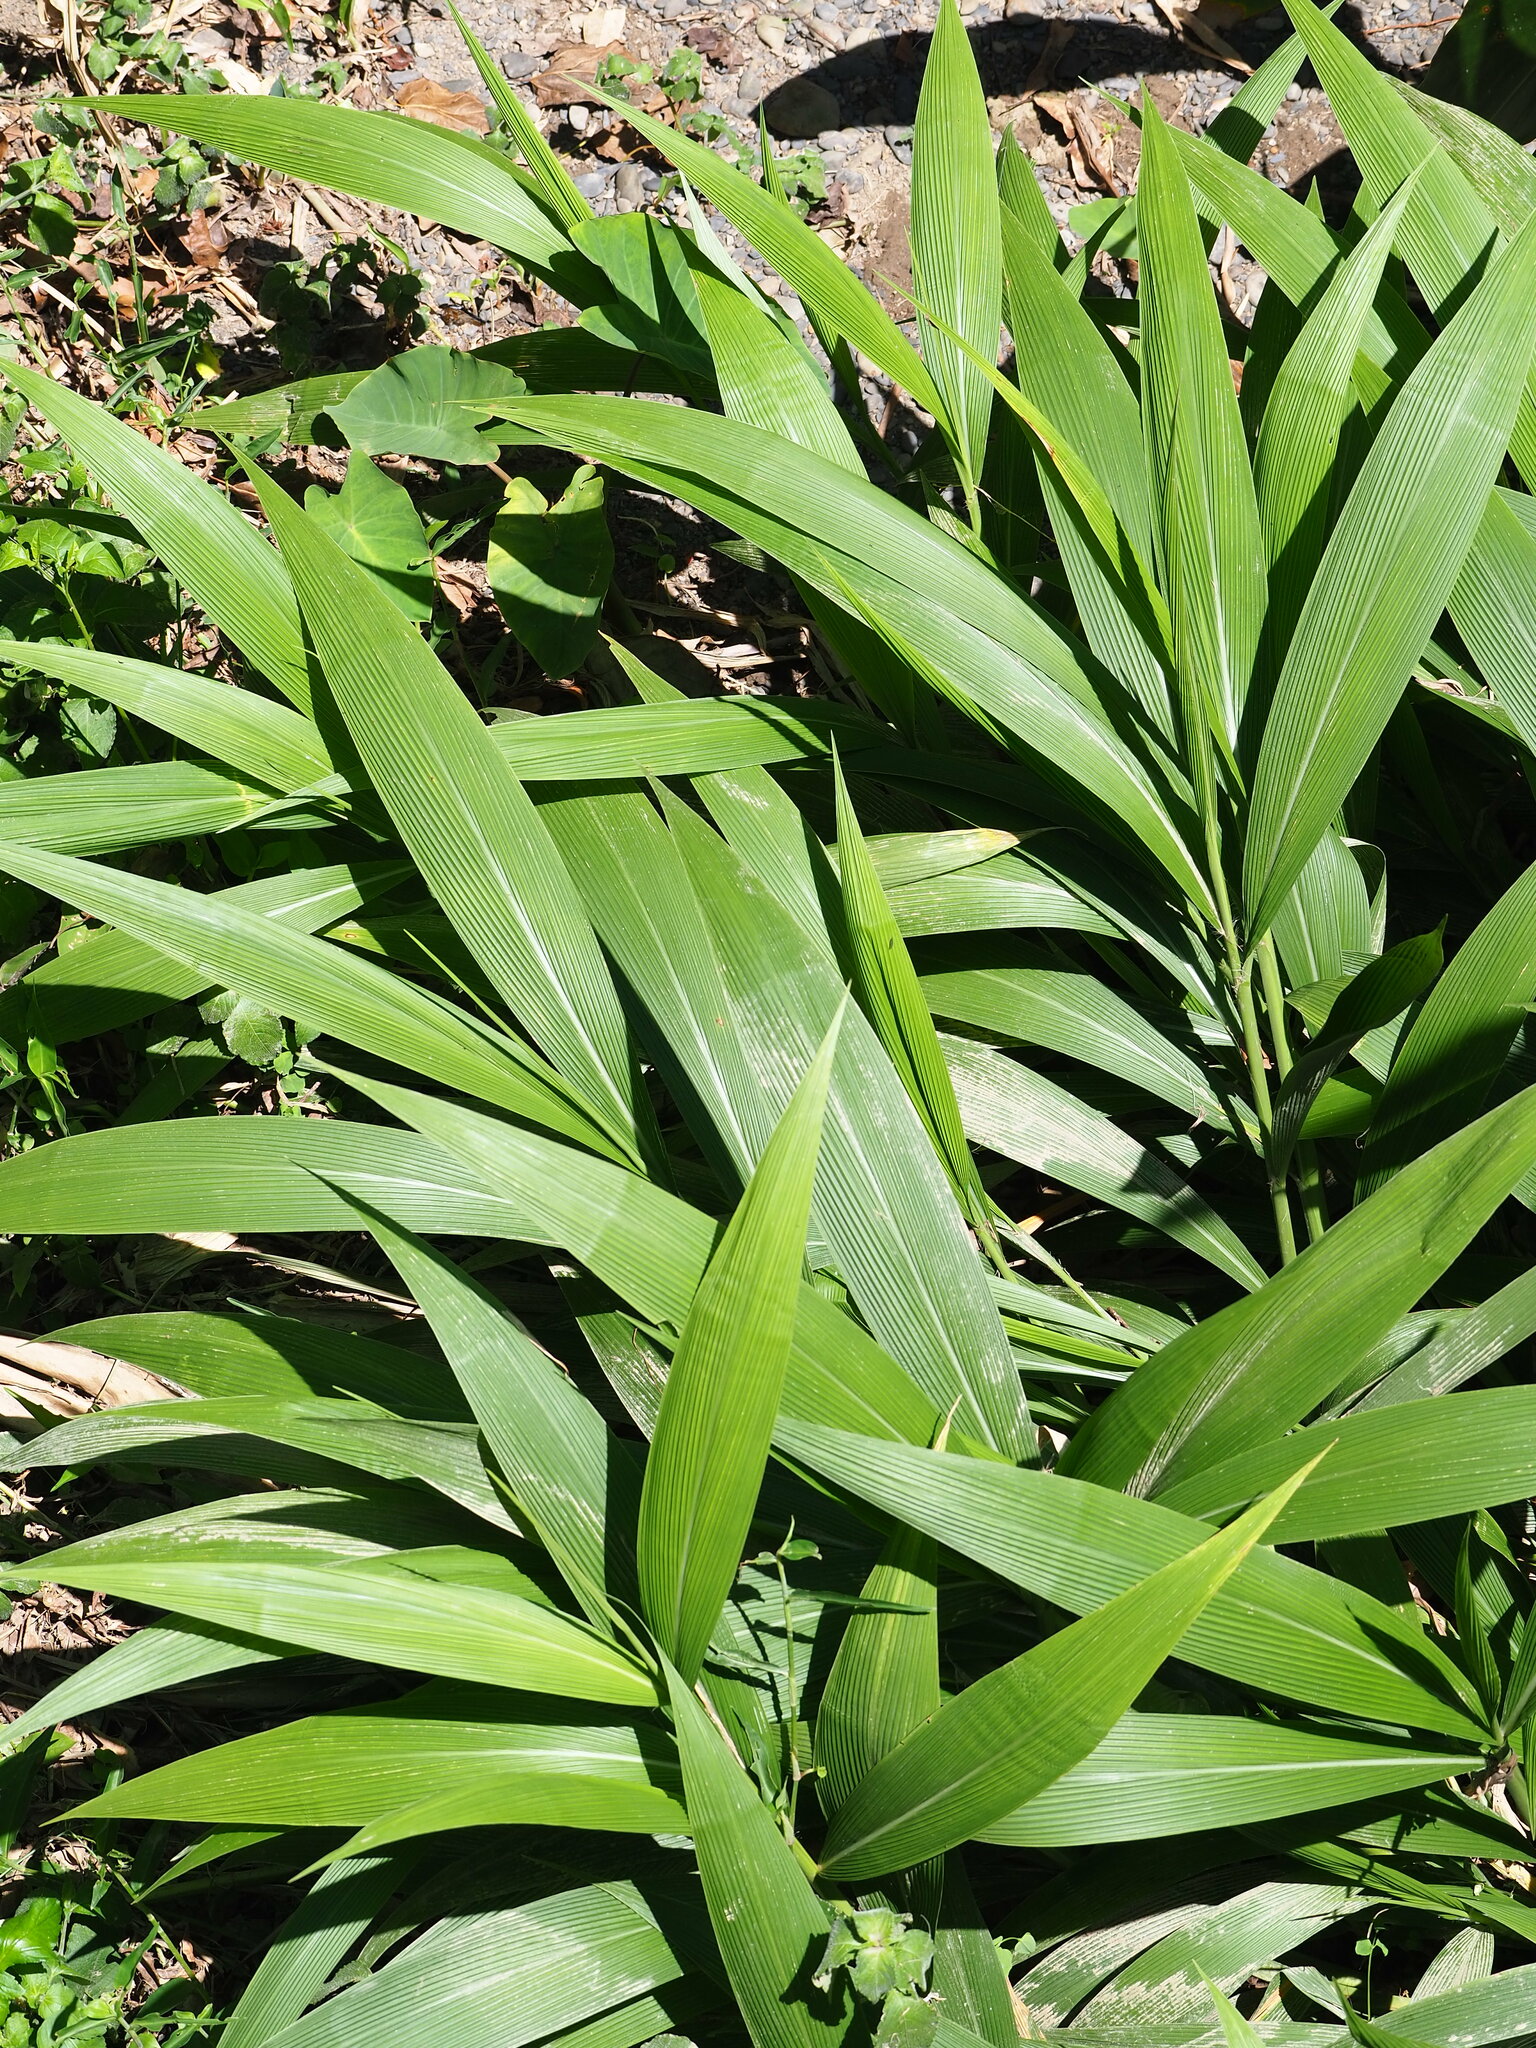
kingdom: Plantae
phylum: Tracheophyta
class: Liliopsida
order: Poales
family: Poaceae
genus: Setaria
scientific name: Setaria palmifolia
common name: Broadleaved bristlegrass
